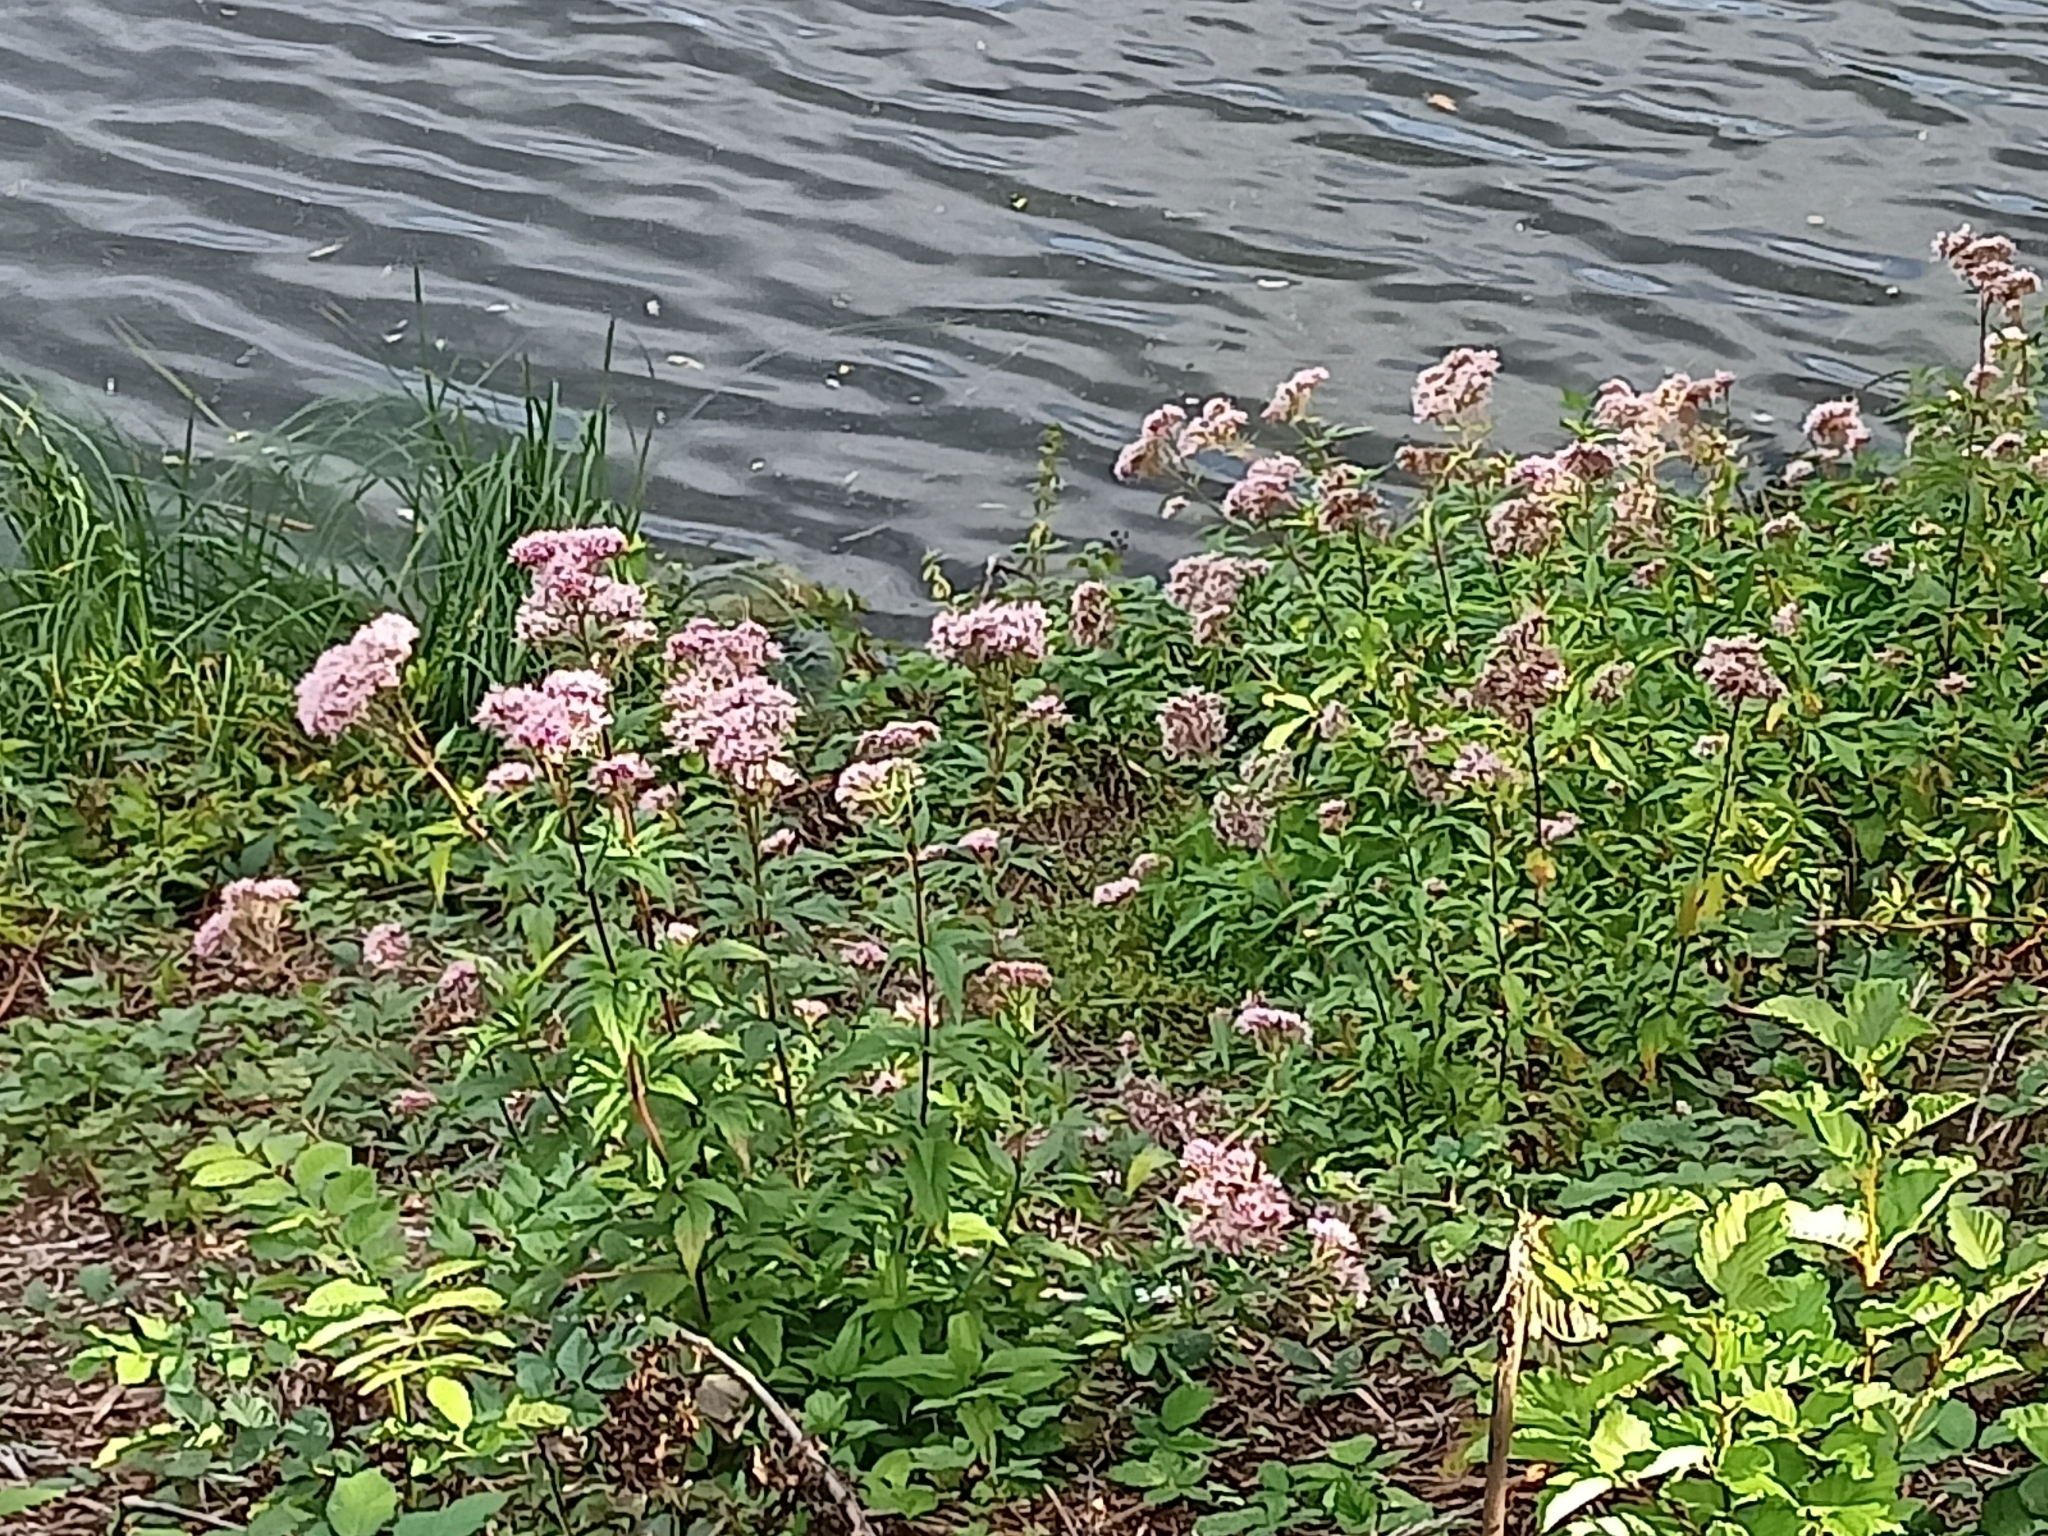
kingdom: Plantae
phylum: Tracheophyta
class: Magnoliopsida
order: Asterales
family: Asteraceae
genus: Eupatorium
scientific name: Eupatorium cannabinum
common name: Hemp-agrimony
